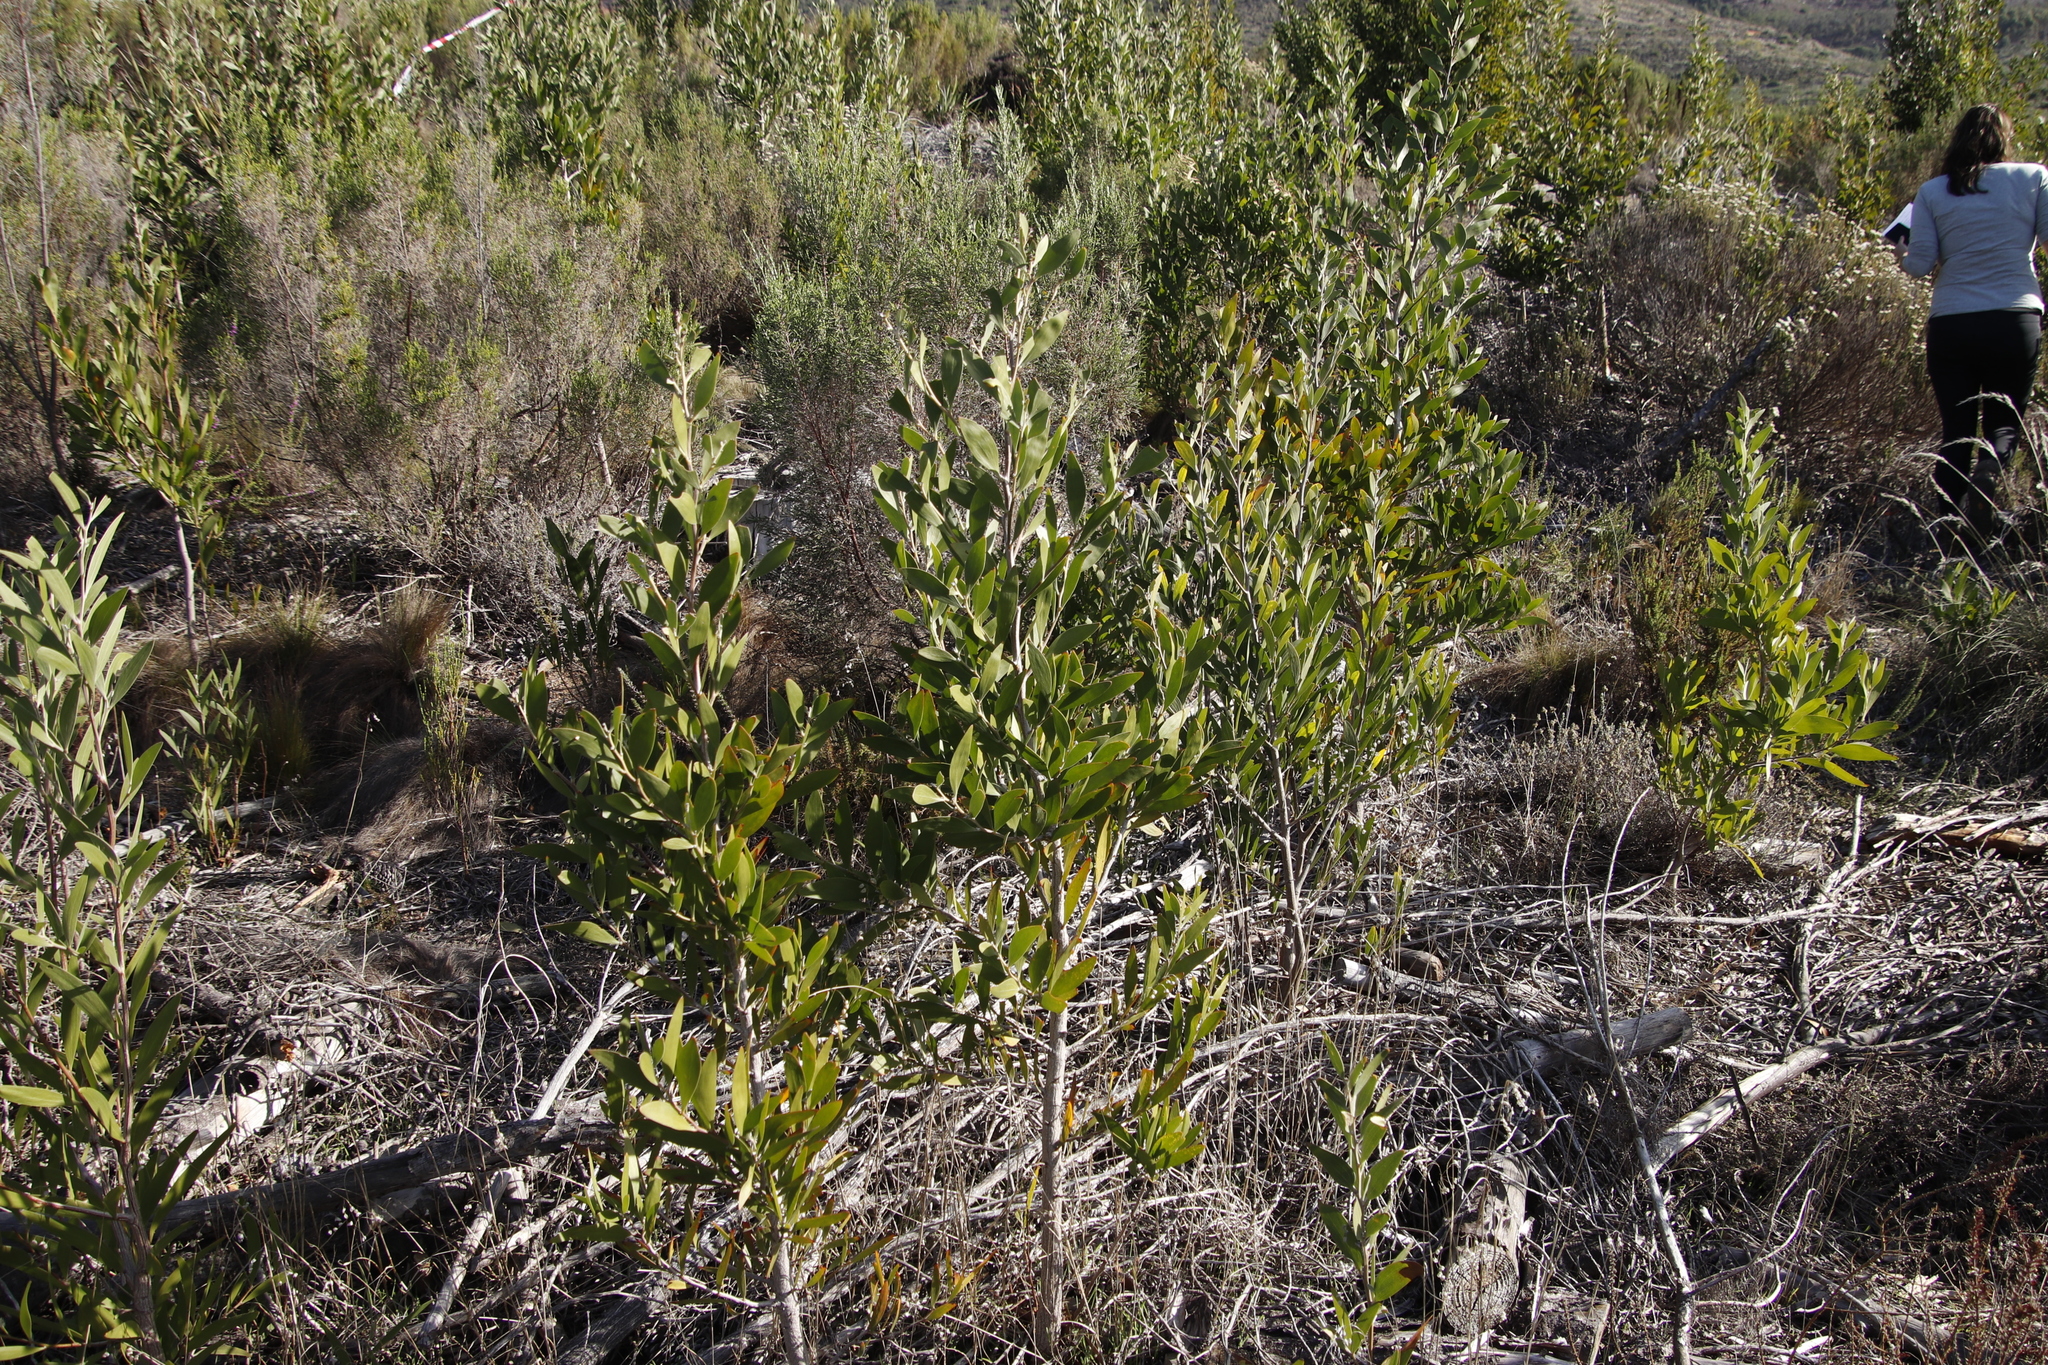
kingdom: Plantae
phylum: Tracheophyta
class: Magnoliopsida
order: Fabales
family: Fabaceae
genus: Acacia
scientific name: Acacia melanoxylon
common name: Blackwood
